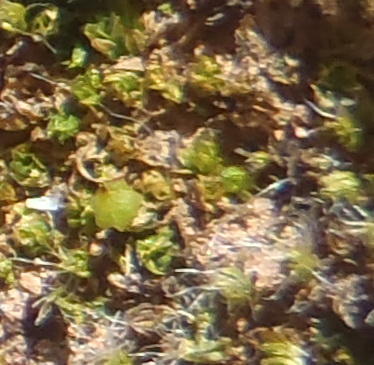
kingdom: Plantae
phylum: Bryophyta
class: Bryopsida
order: Funariales
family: Funariaceae
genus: Goniomitrium
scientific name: Goniomitrium acuminatum
